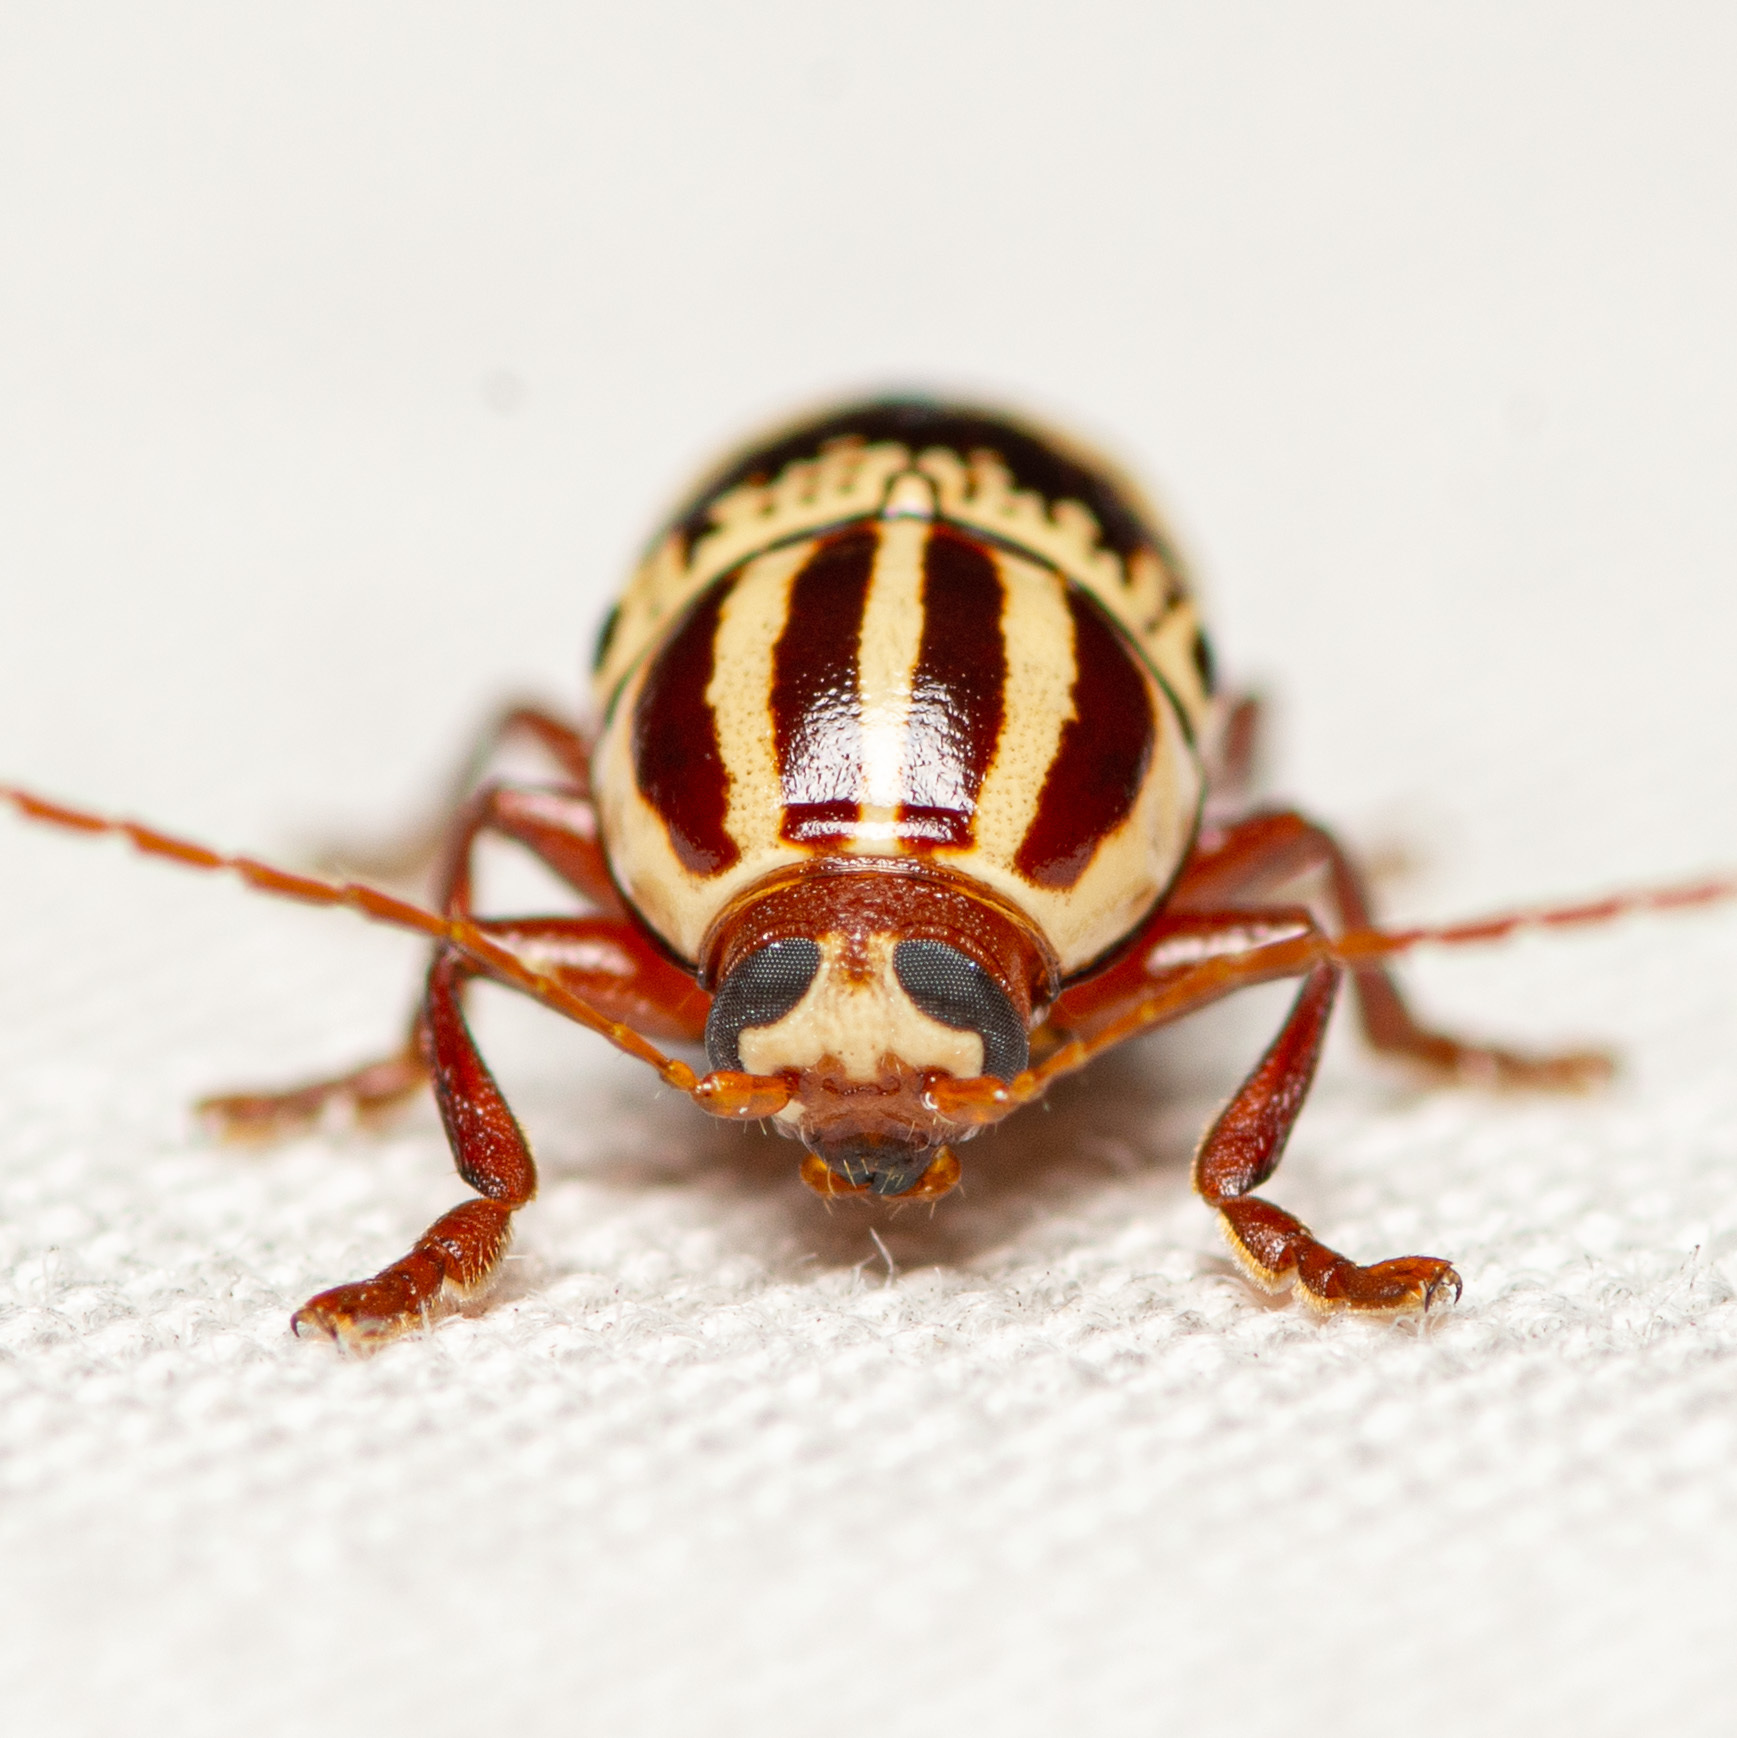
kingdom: Animalia
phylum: Arthropoda
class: Insecta
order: Coleoptera
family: Chrysomelidae
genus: Cryptocephalus
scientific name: Cryptocephalus leucomelas
